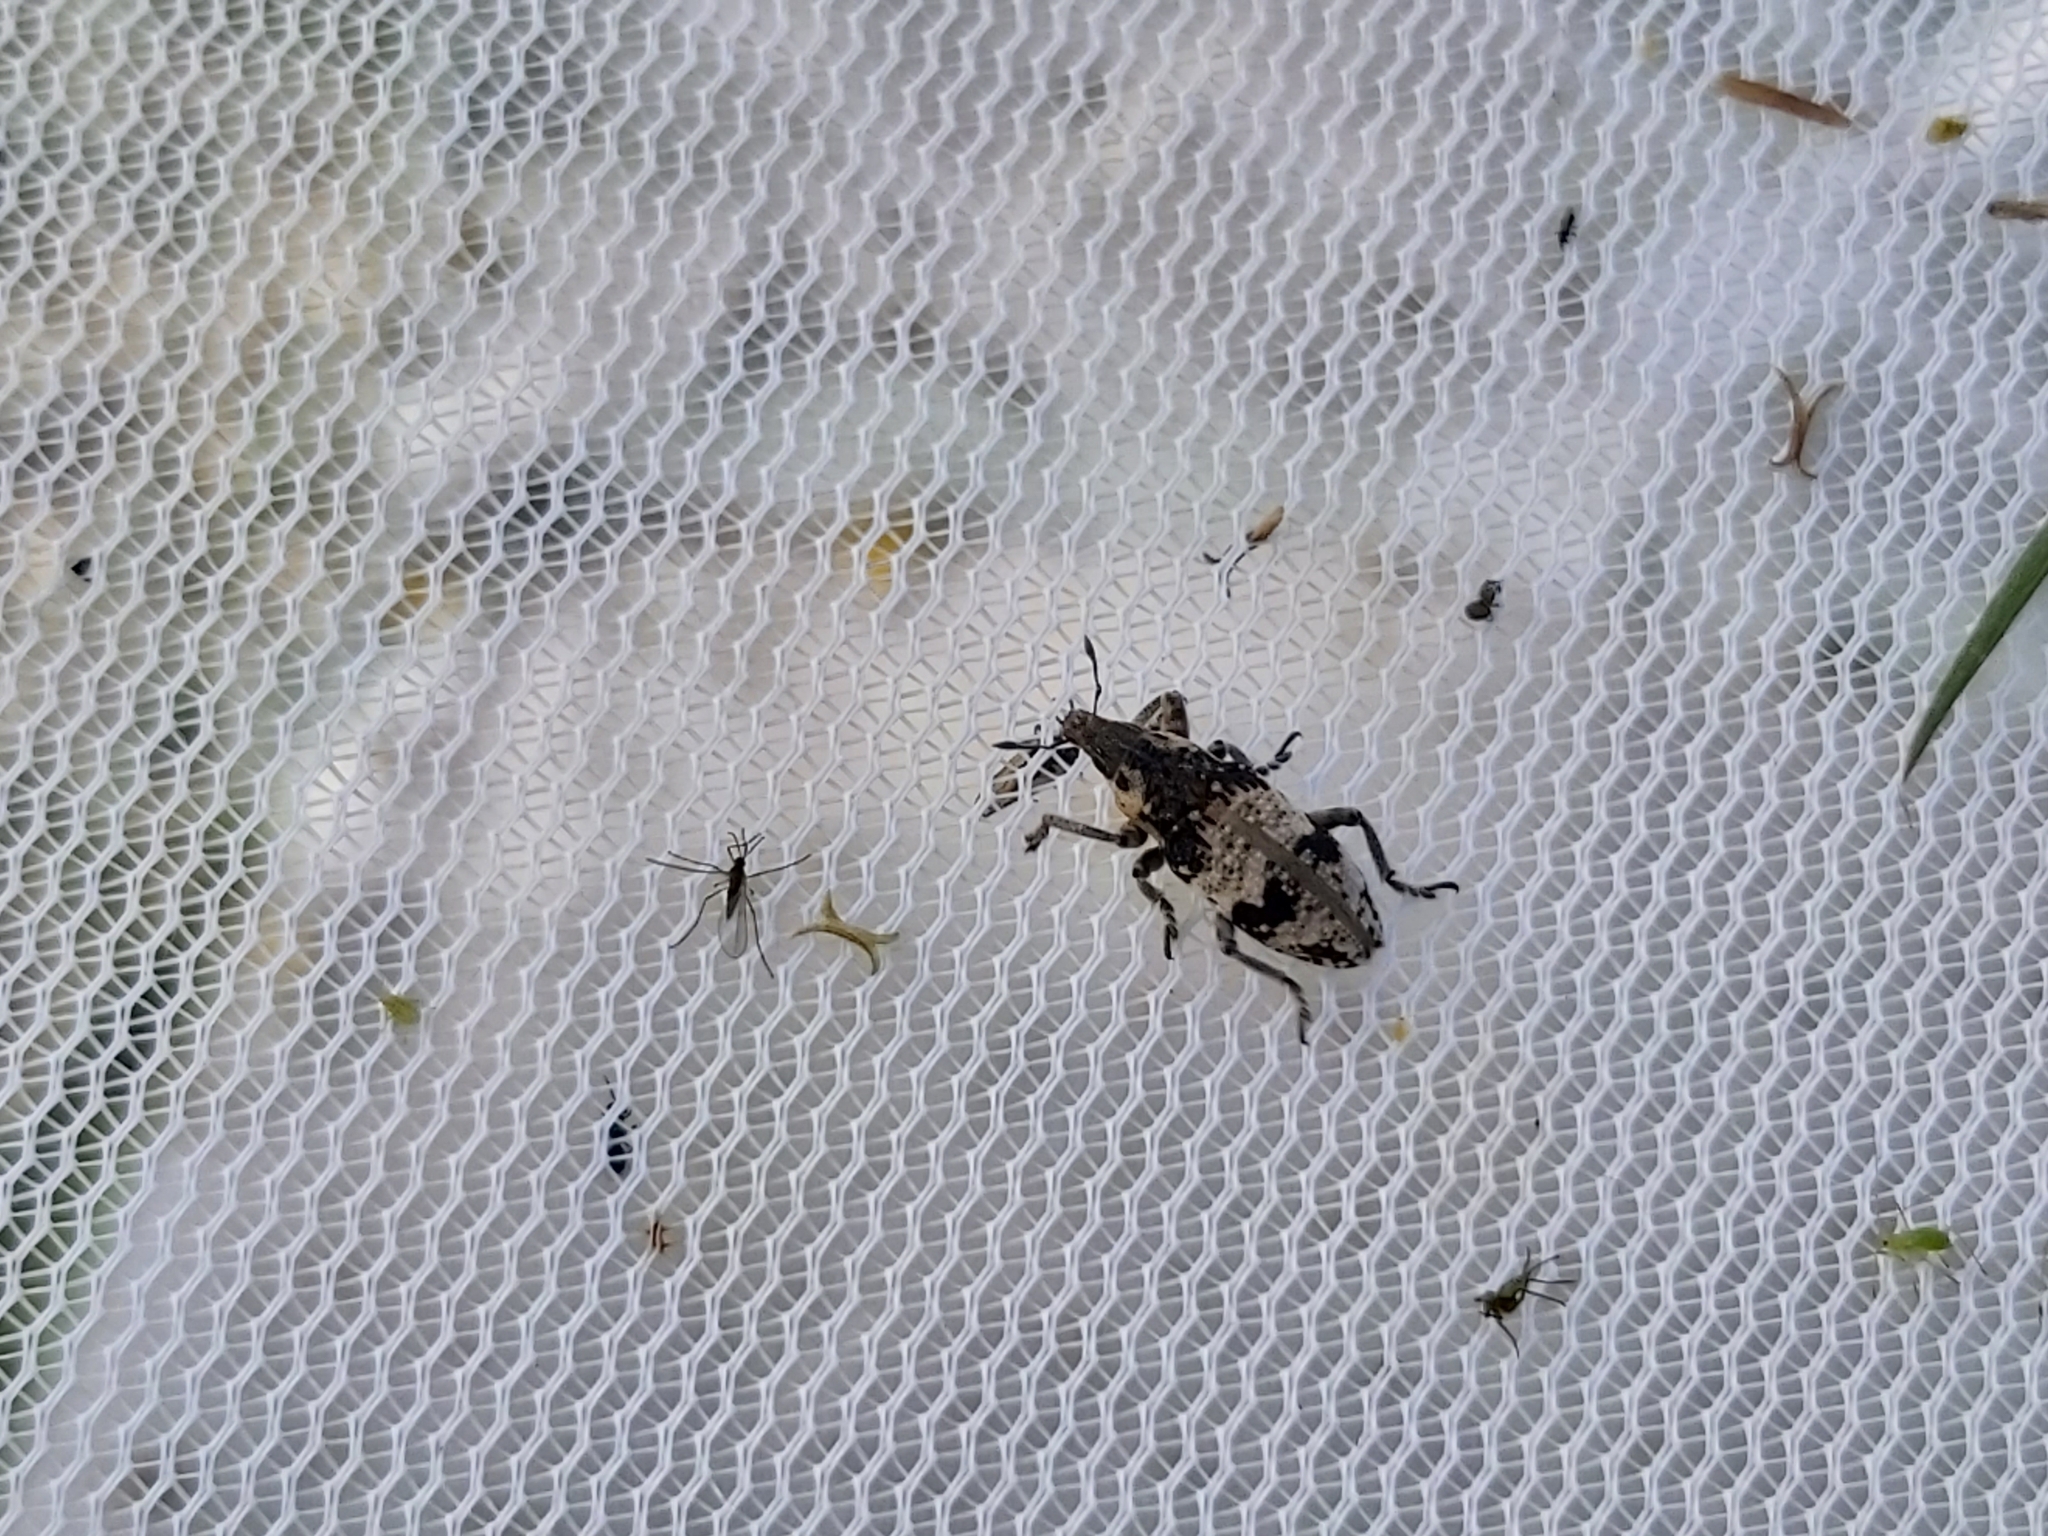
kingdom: Animalia
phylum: Arthropoda
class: Insecta
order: Coleoptera
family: Curculionidae
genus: Bothynoderes
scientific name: Bothynoderes affinis
